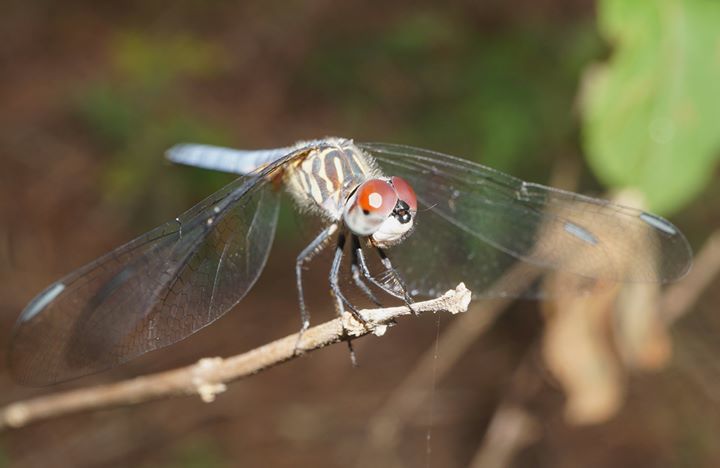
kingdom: Animalia
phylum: Arthropoda
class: Insecta
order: Odonata
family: Libellulidae
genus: Pachydiplax
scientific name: Pachydiplax longipennis
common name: Blue dasher
